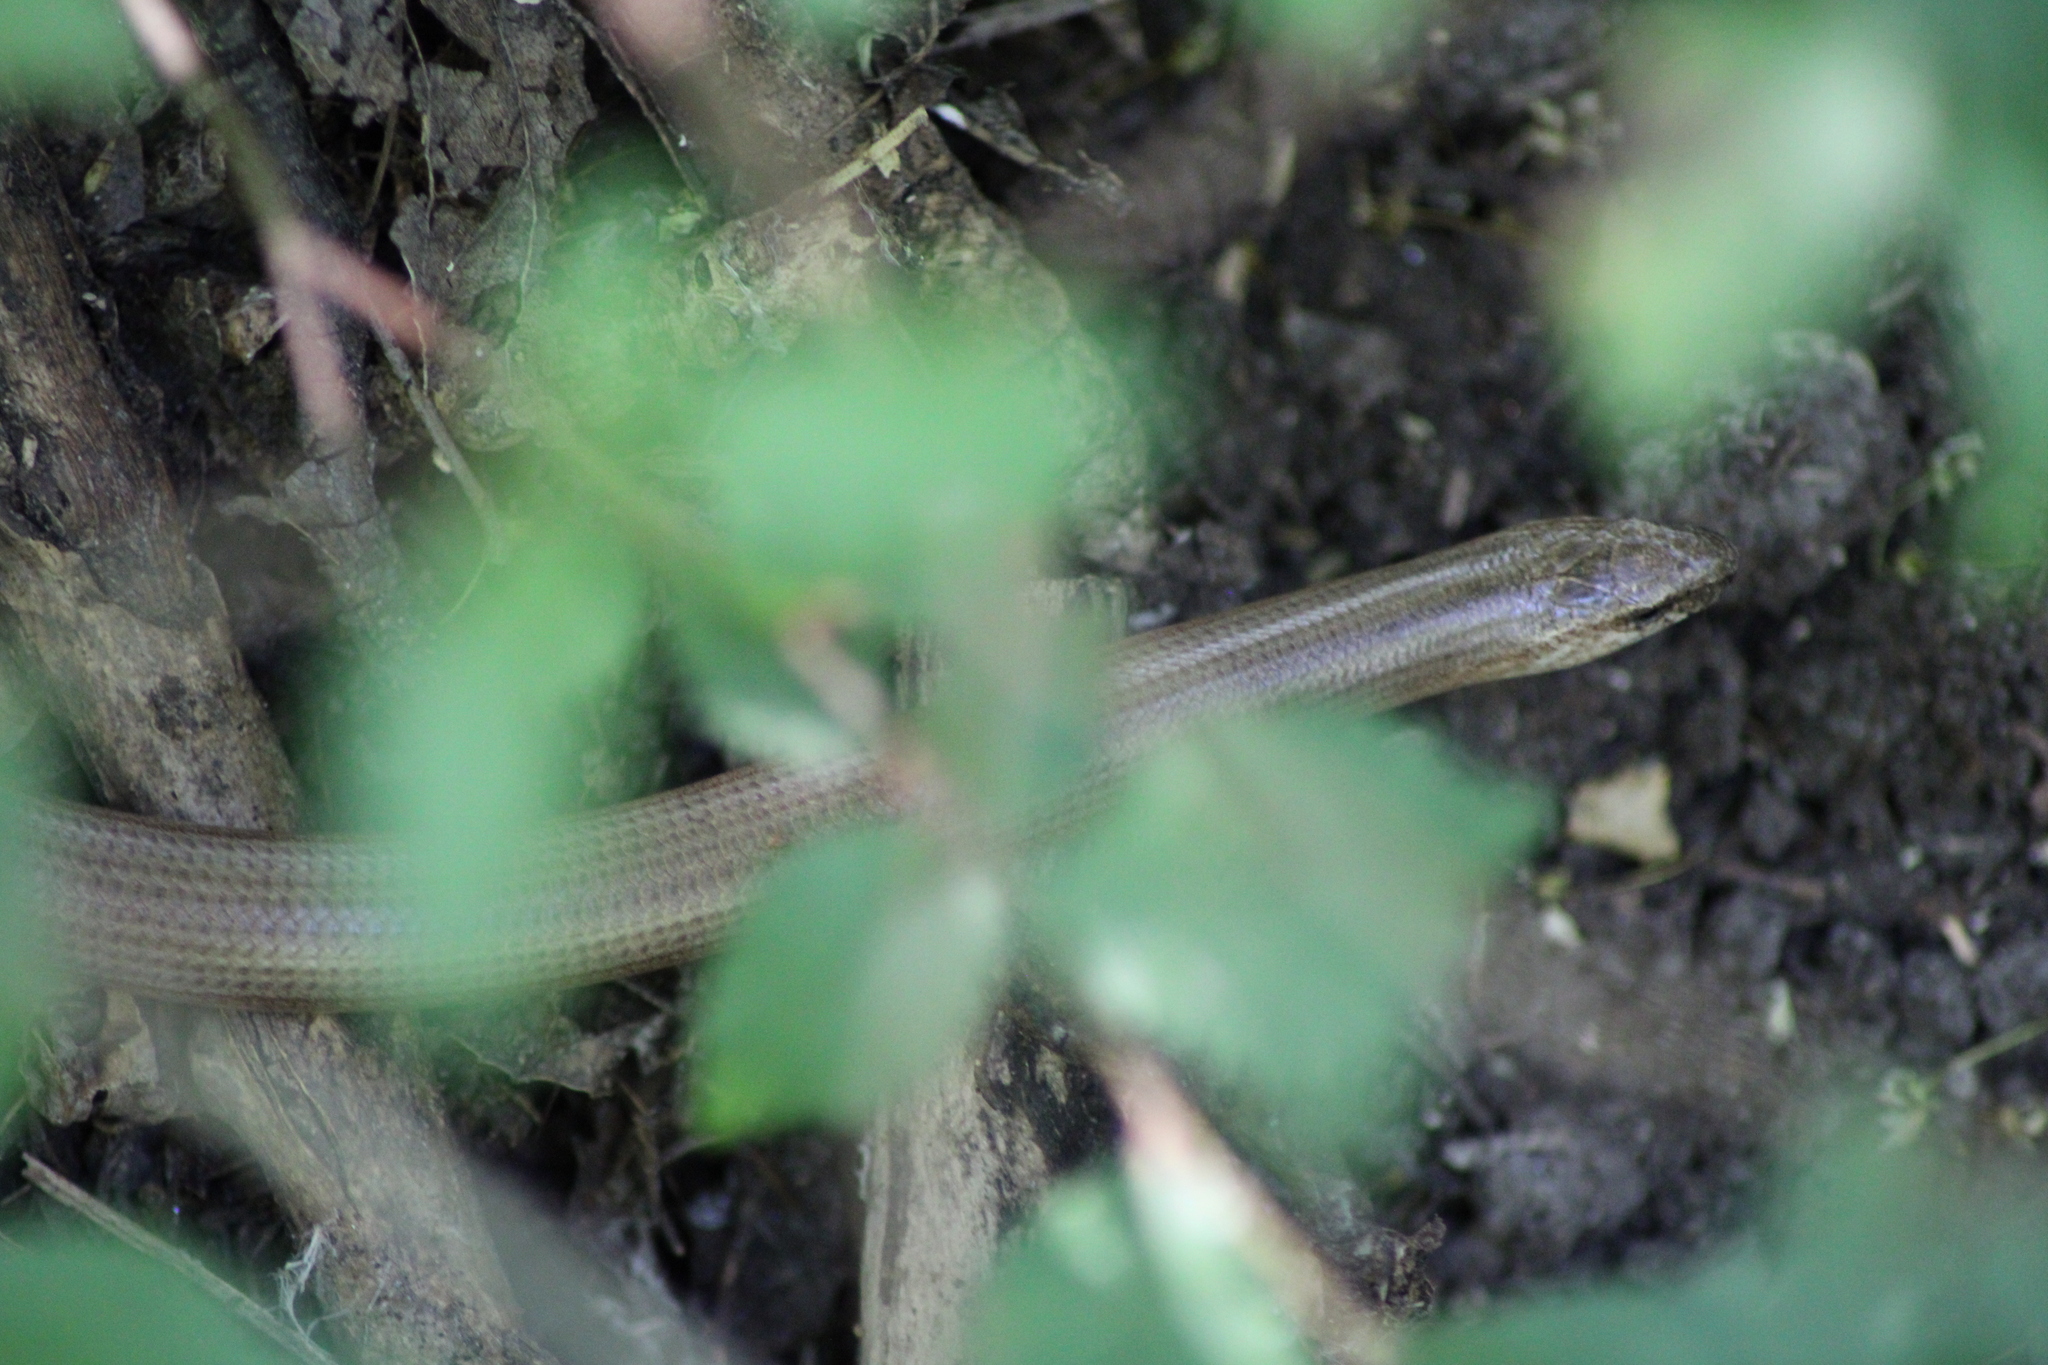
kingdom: Animalia
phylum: Chordata
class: Squamata
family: Anguidae
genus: Anguis
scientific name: Anguis fragilis
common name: Slow worm
